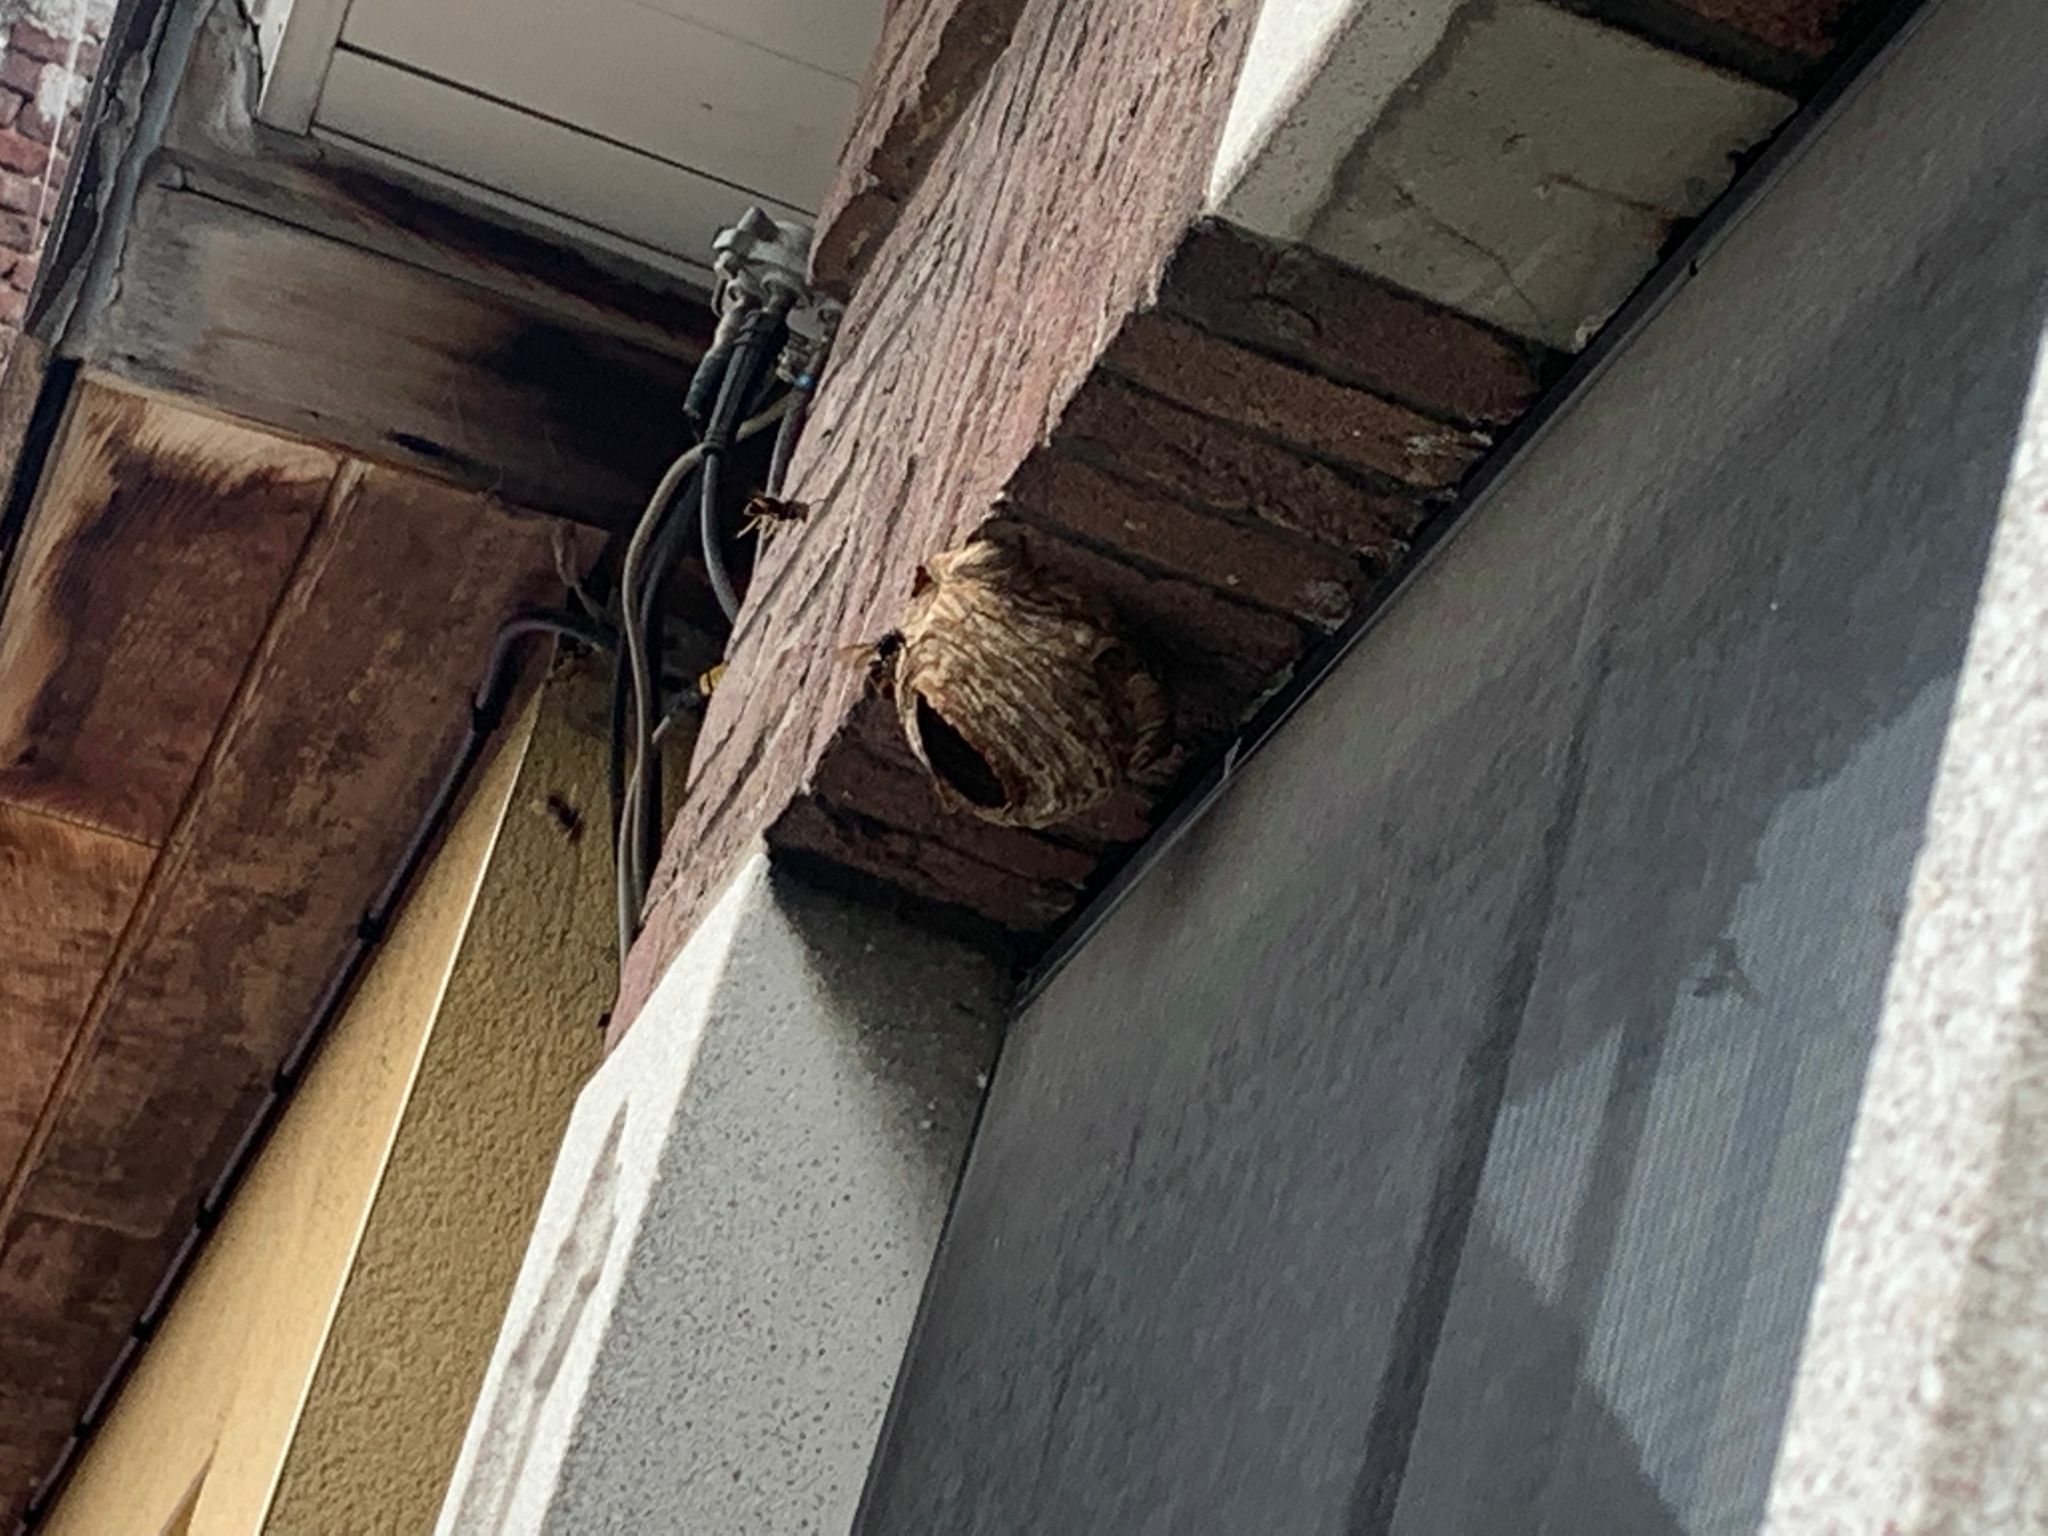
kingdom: Animalia
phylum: Arthropoda
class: Insecta
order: Hymenoptera
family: Vespidae
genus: Vespa
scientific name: Vespa velutina
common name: Asian hornet
